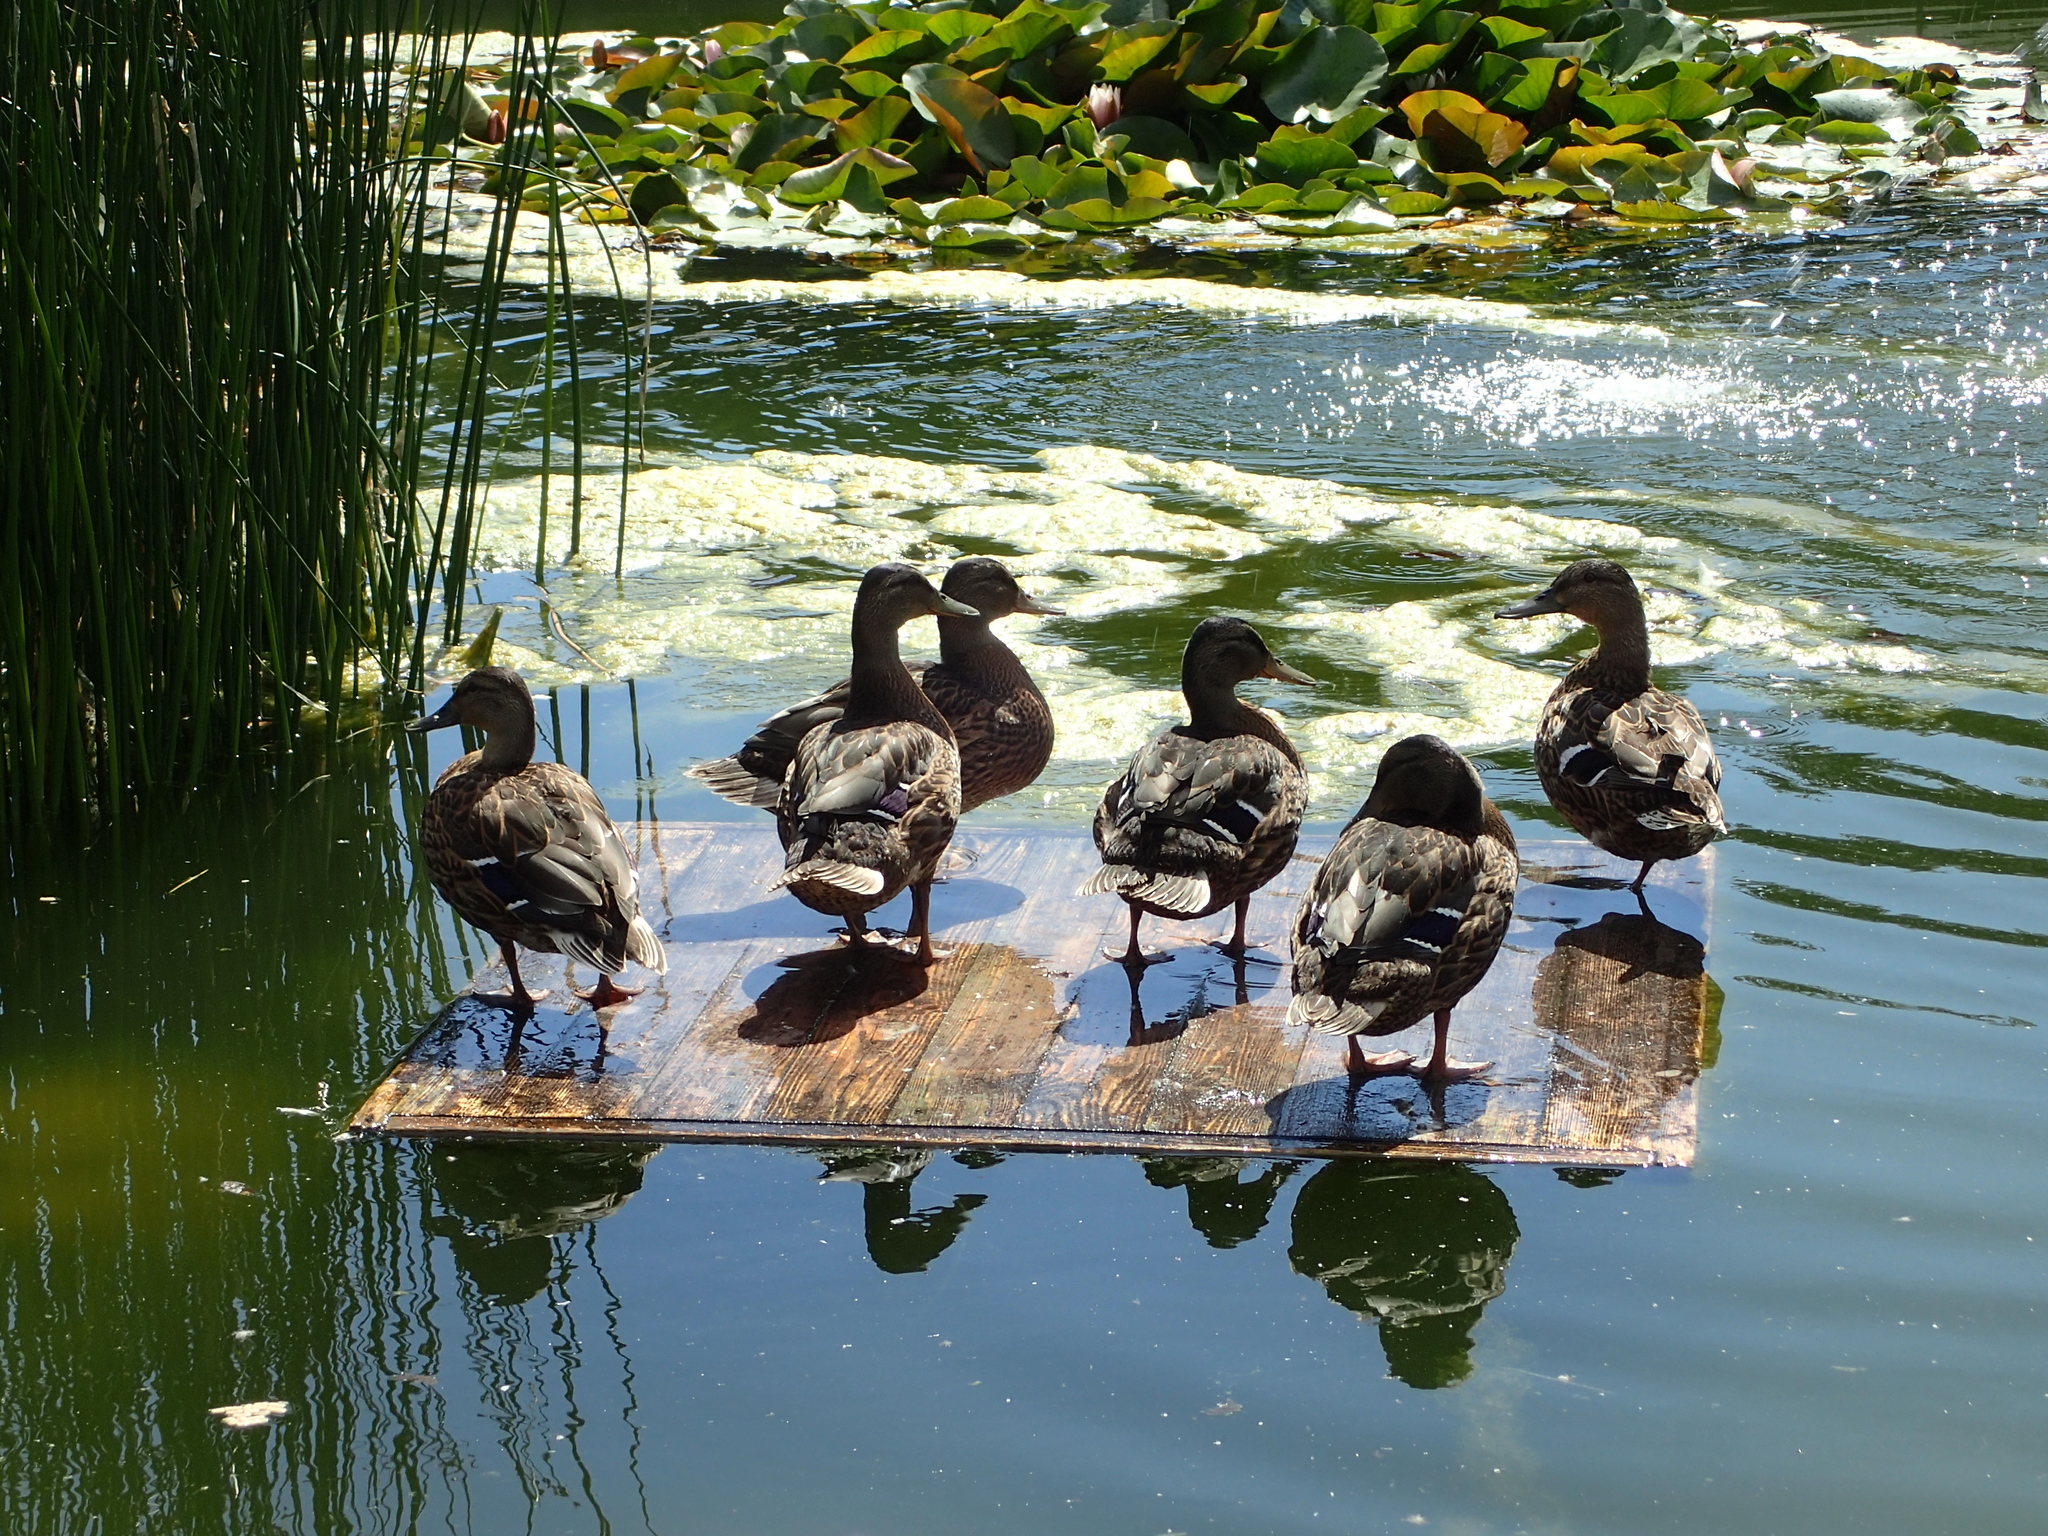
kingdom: Animalia
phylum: Chordata
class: Aves
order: Anseriformes
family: Anatidae
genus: Anas
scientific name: Anas platyrhynchos
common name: Mallard
